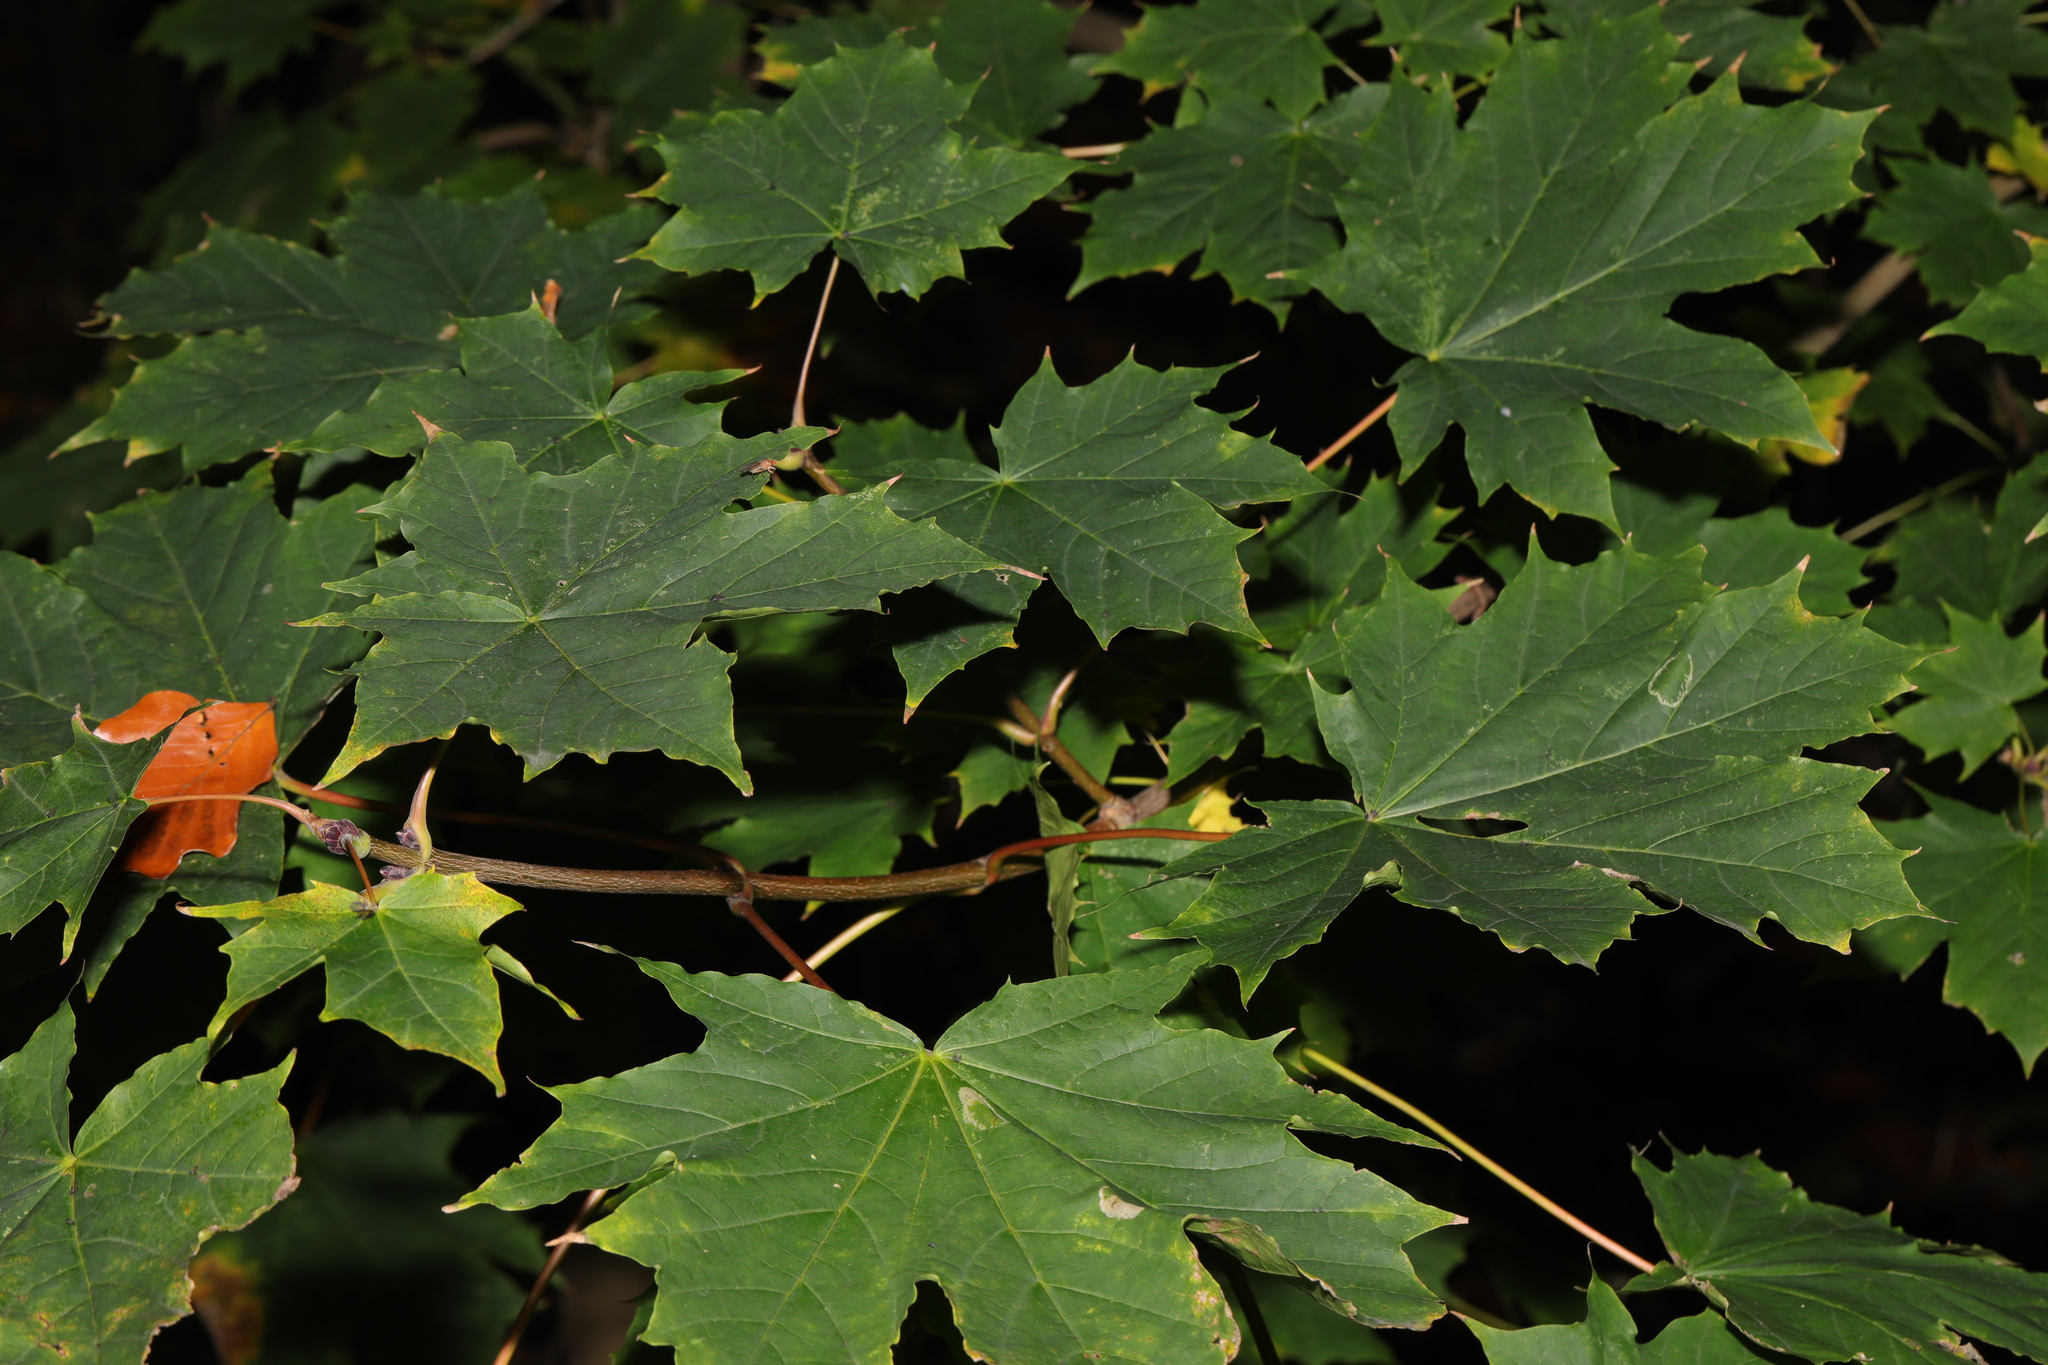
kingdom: Plantae
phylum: Tracheophyta
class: Magnoliopsida
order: Sapindales
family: Sapindaceae
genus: Acer
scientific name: Acer platanoides
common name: Norway maple
